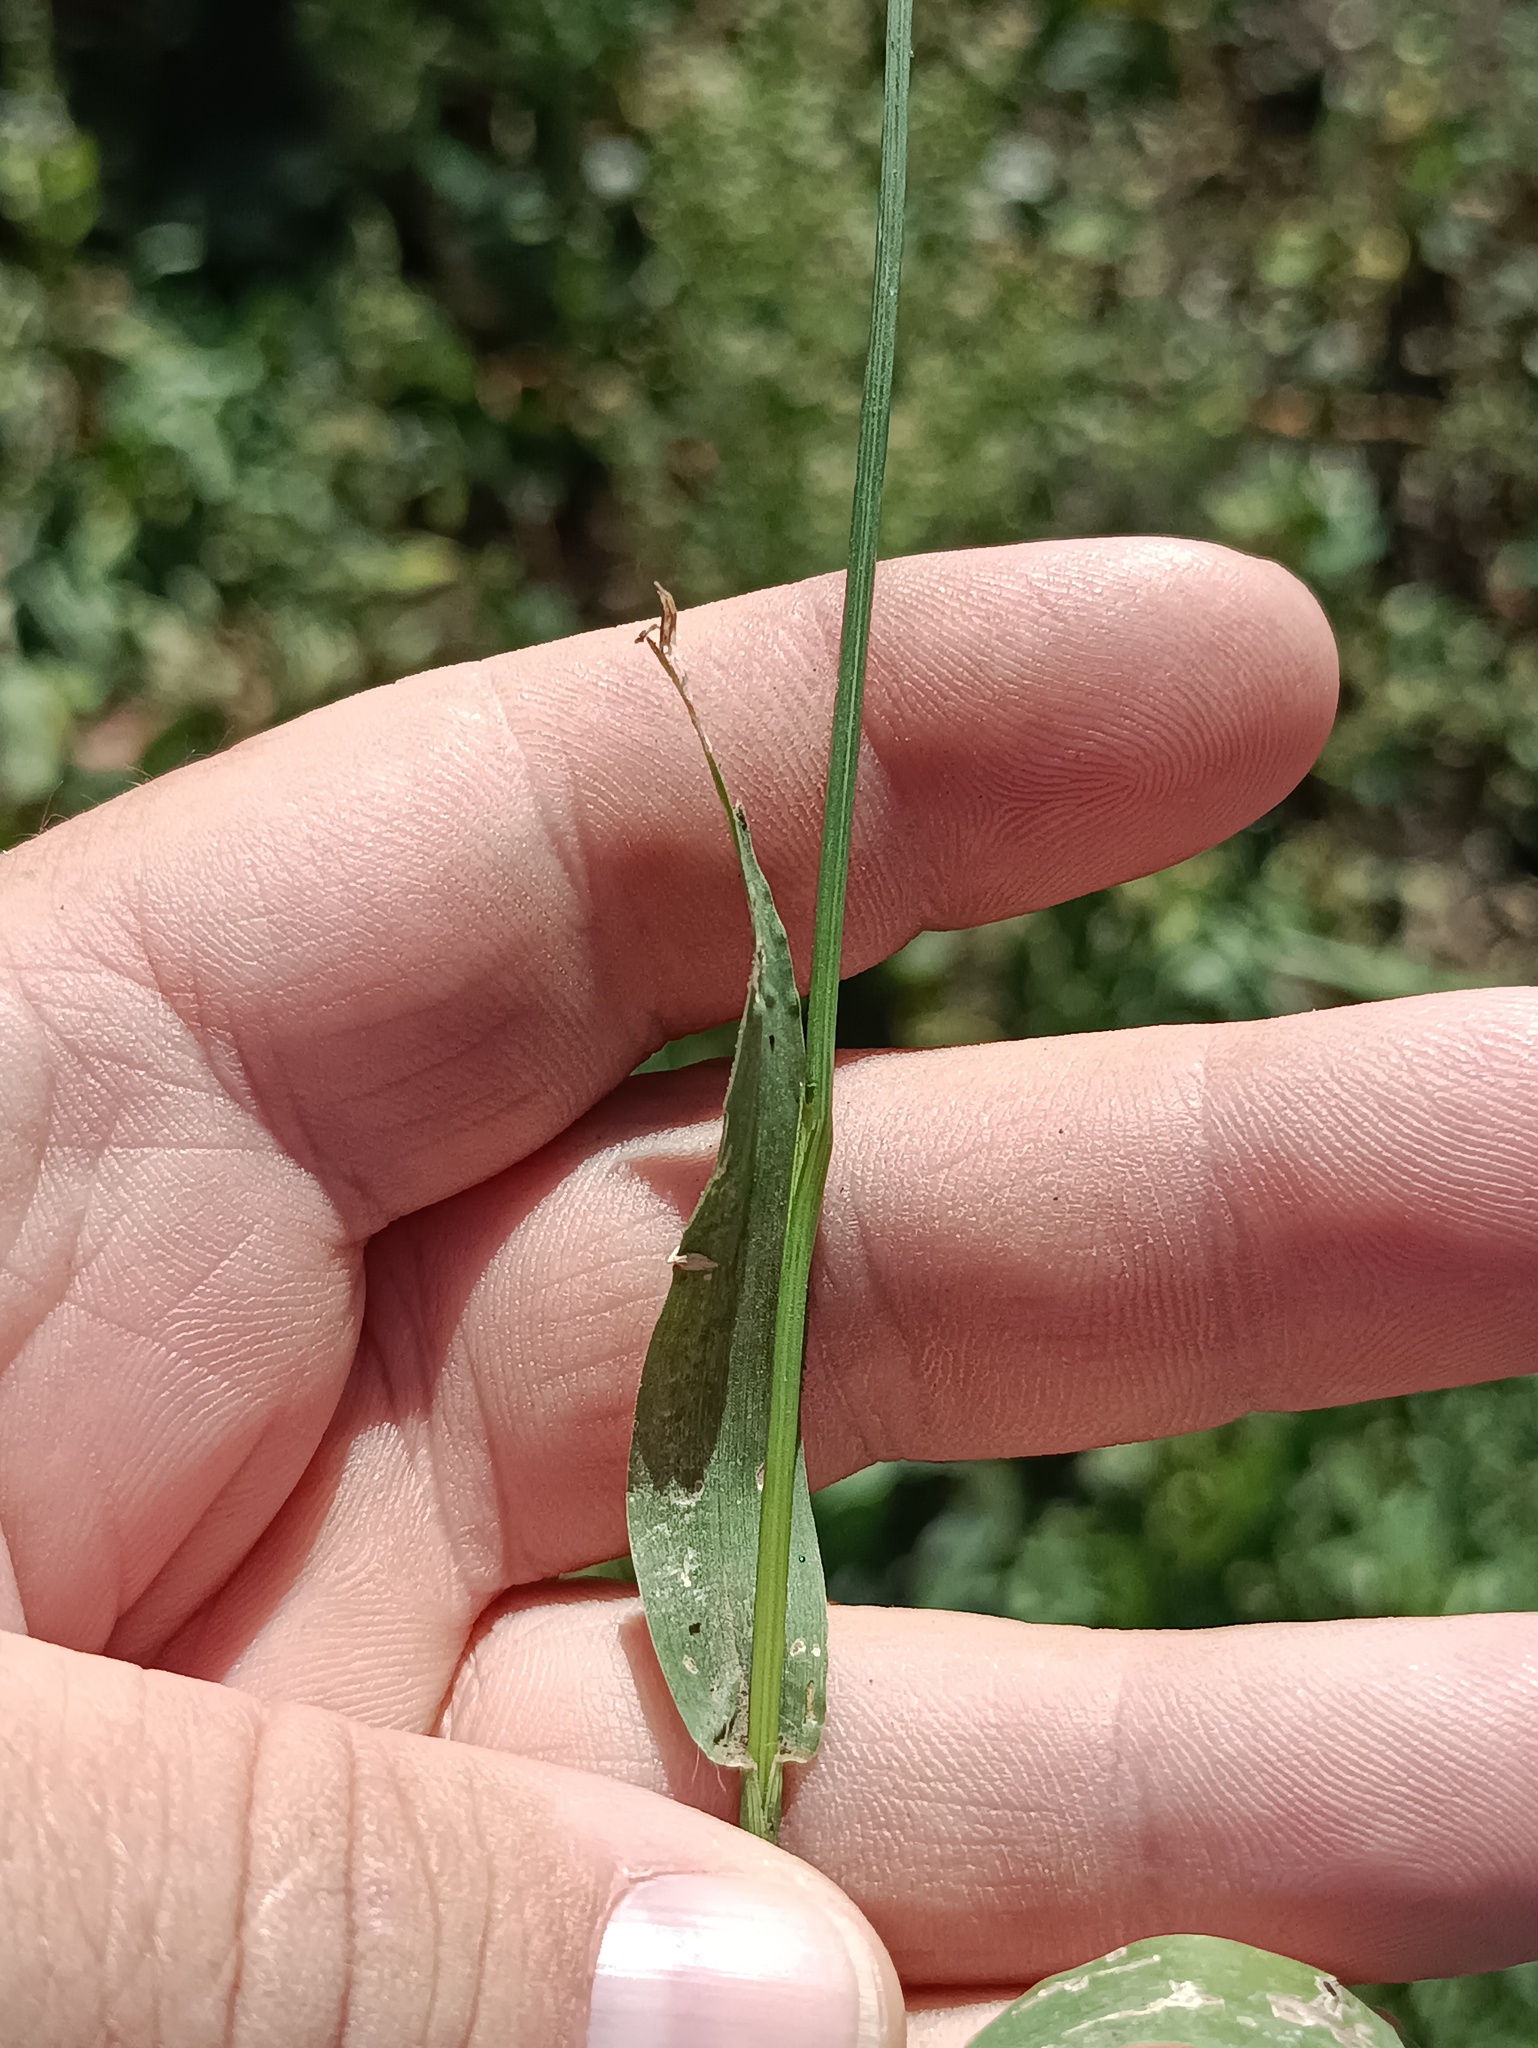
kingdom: Plantae
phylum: Tracheophyta
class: Liliopsida
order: Poales
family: Poaceae
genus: Setaria
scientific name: Setaria pumila
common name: Yellow bristle-grass
